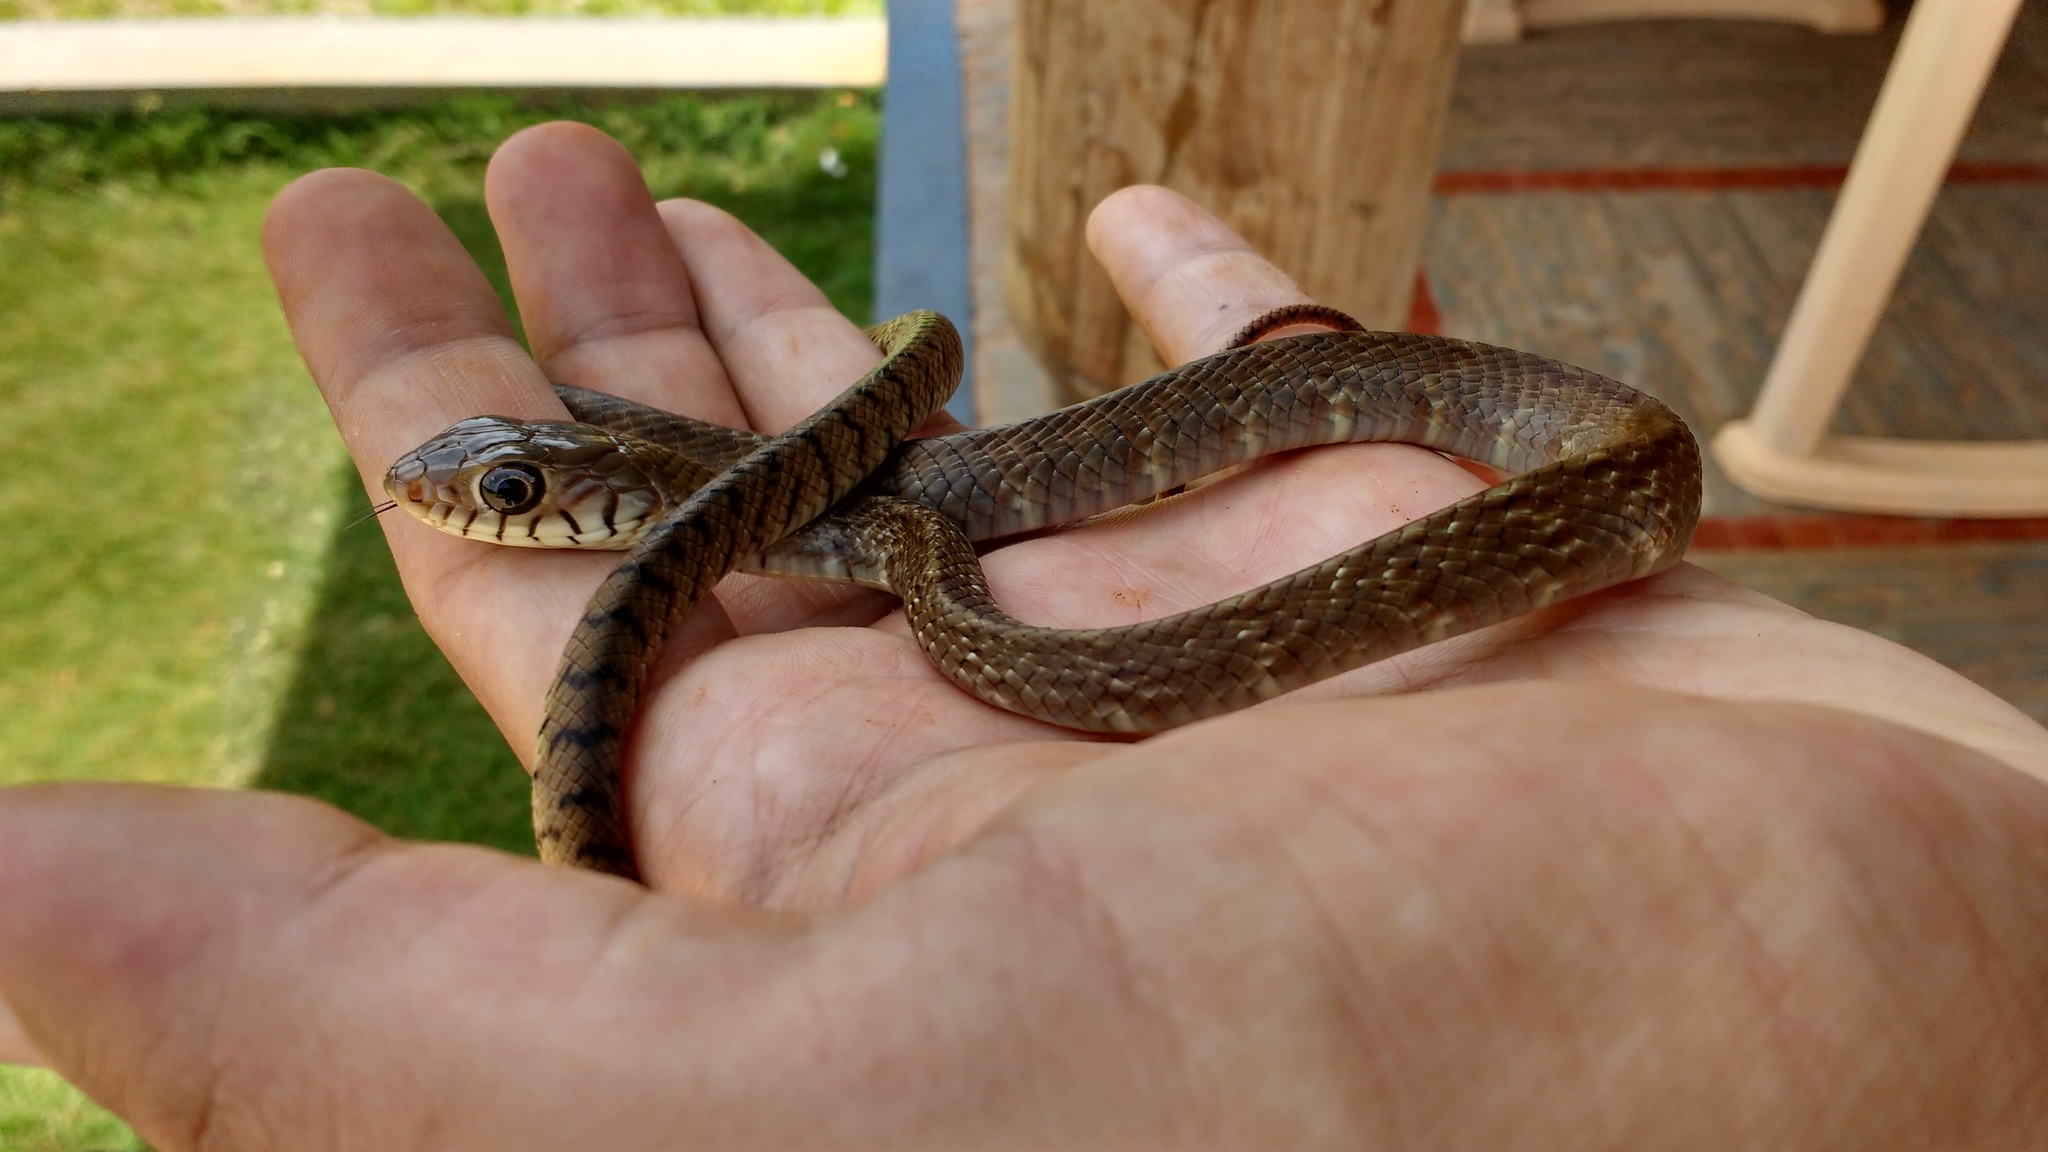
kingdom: Animalia
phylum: Chordata
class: Squamata
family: Colubridae
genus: Ptyas
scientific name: Ptyas mucosa
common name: Oriental ratsnake
